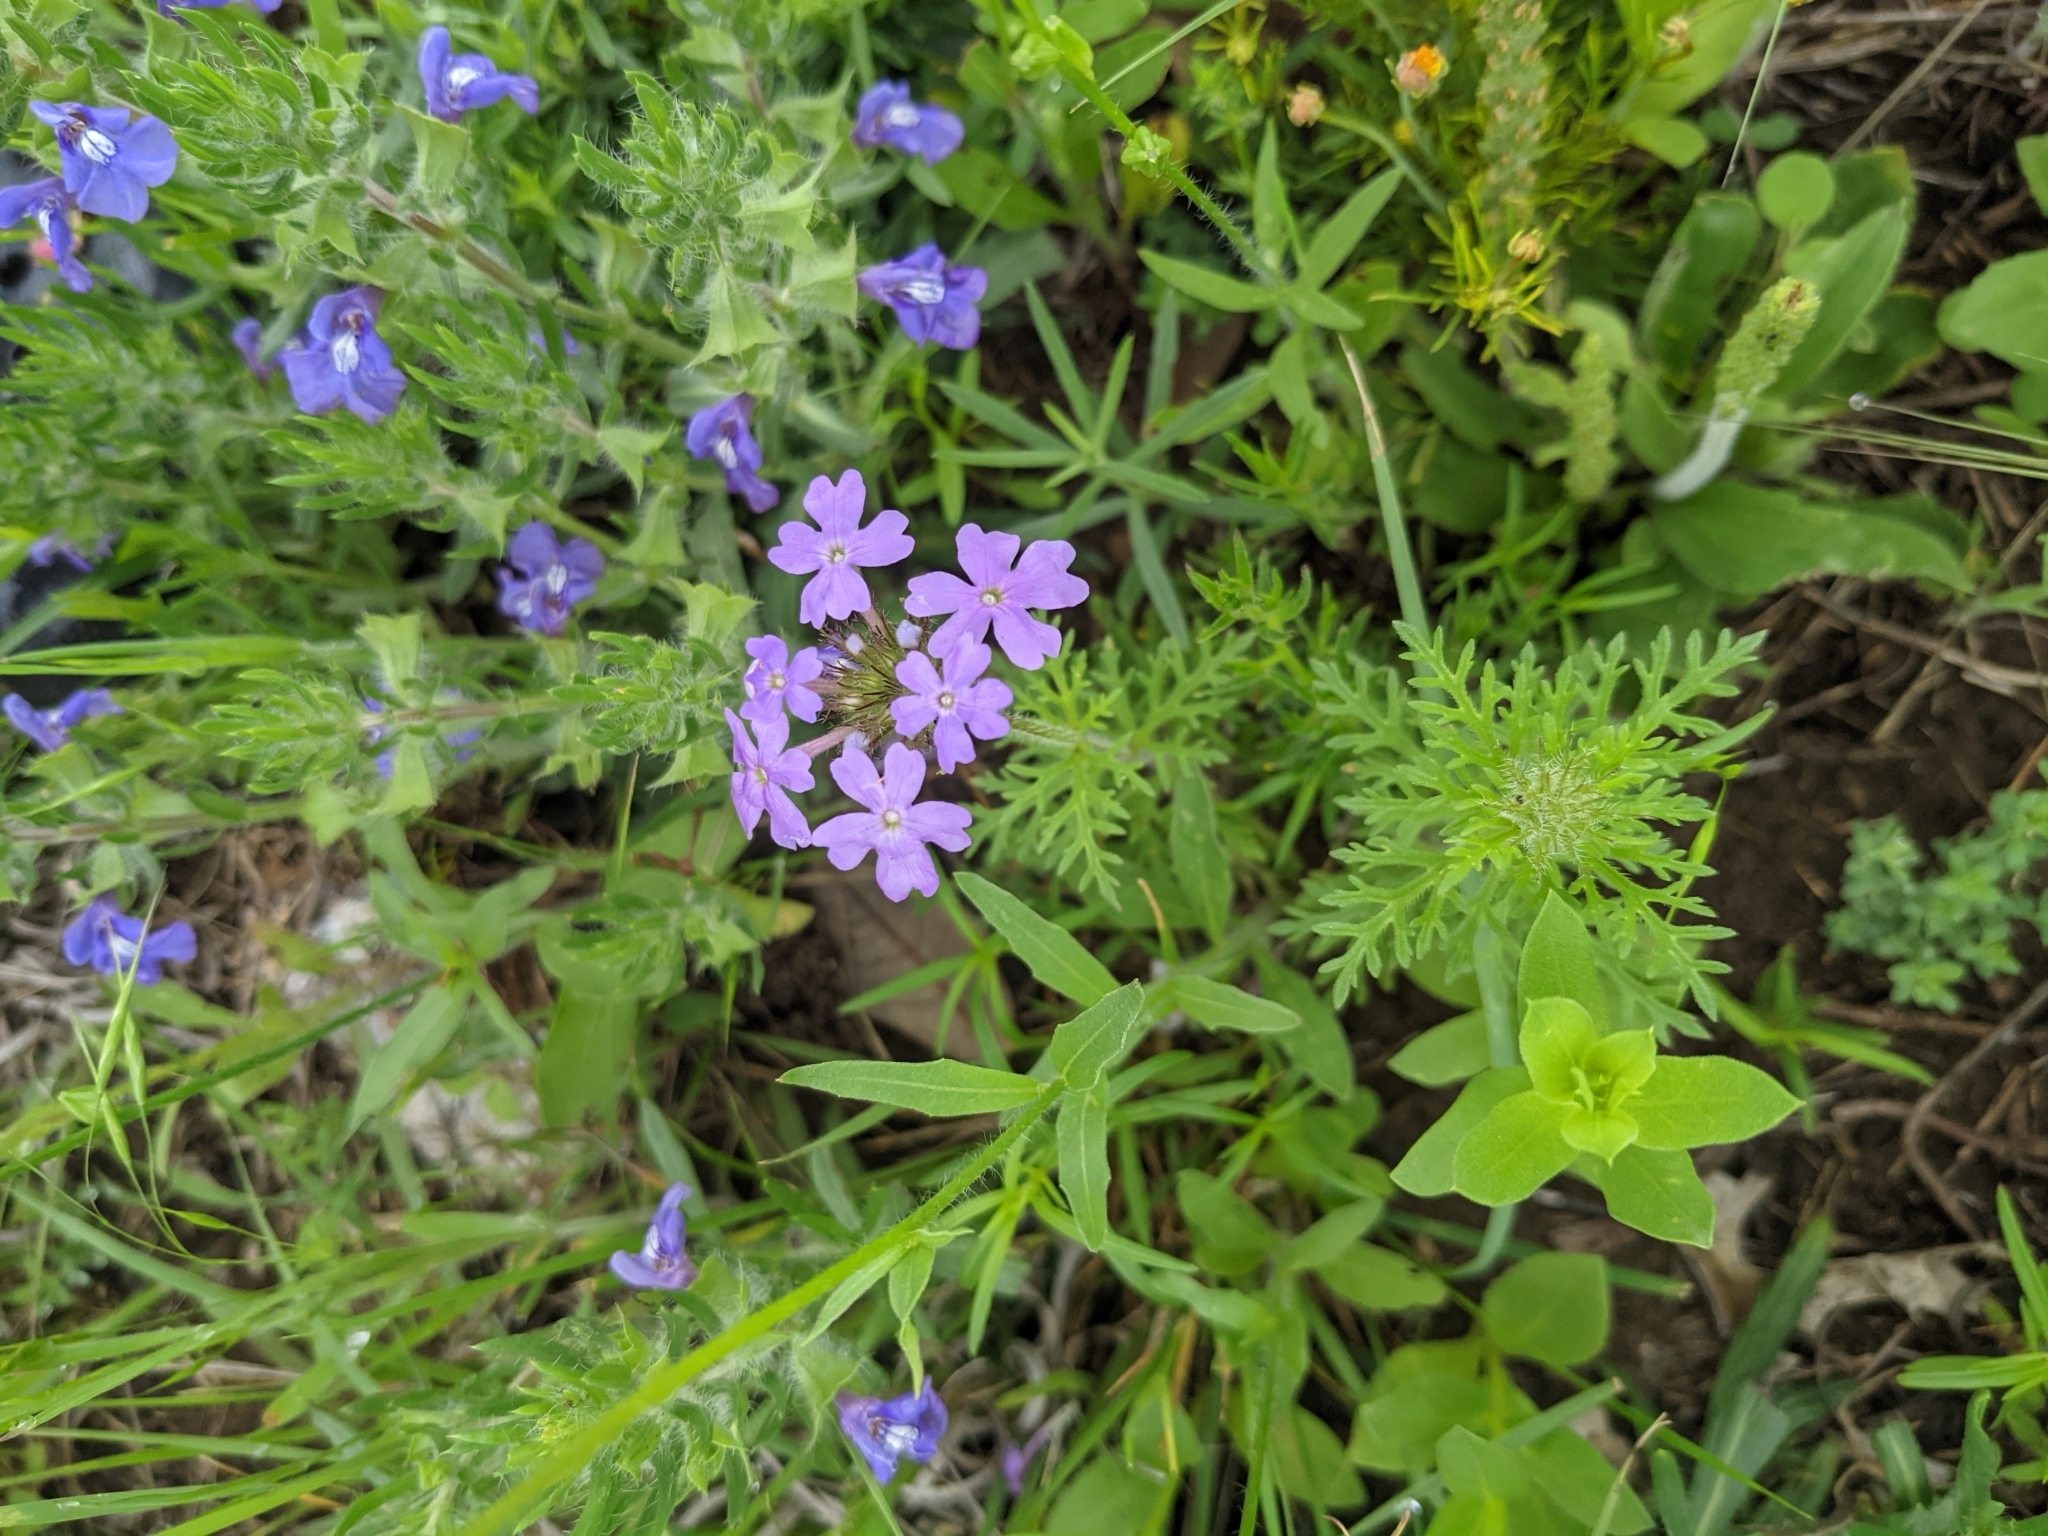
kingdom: Plantae
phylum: Tracheophyta
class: Magnoliopsida
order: Lamiales
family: Verbenaceae
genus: Verbena
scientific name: Verbena bipinnatifida
